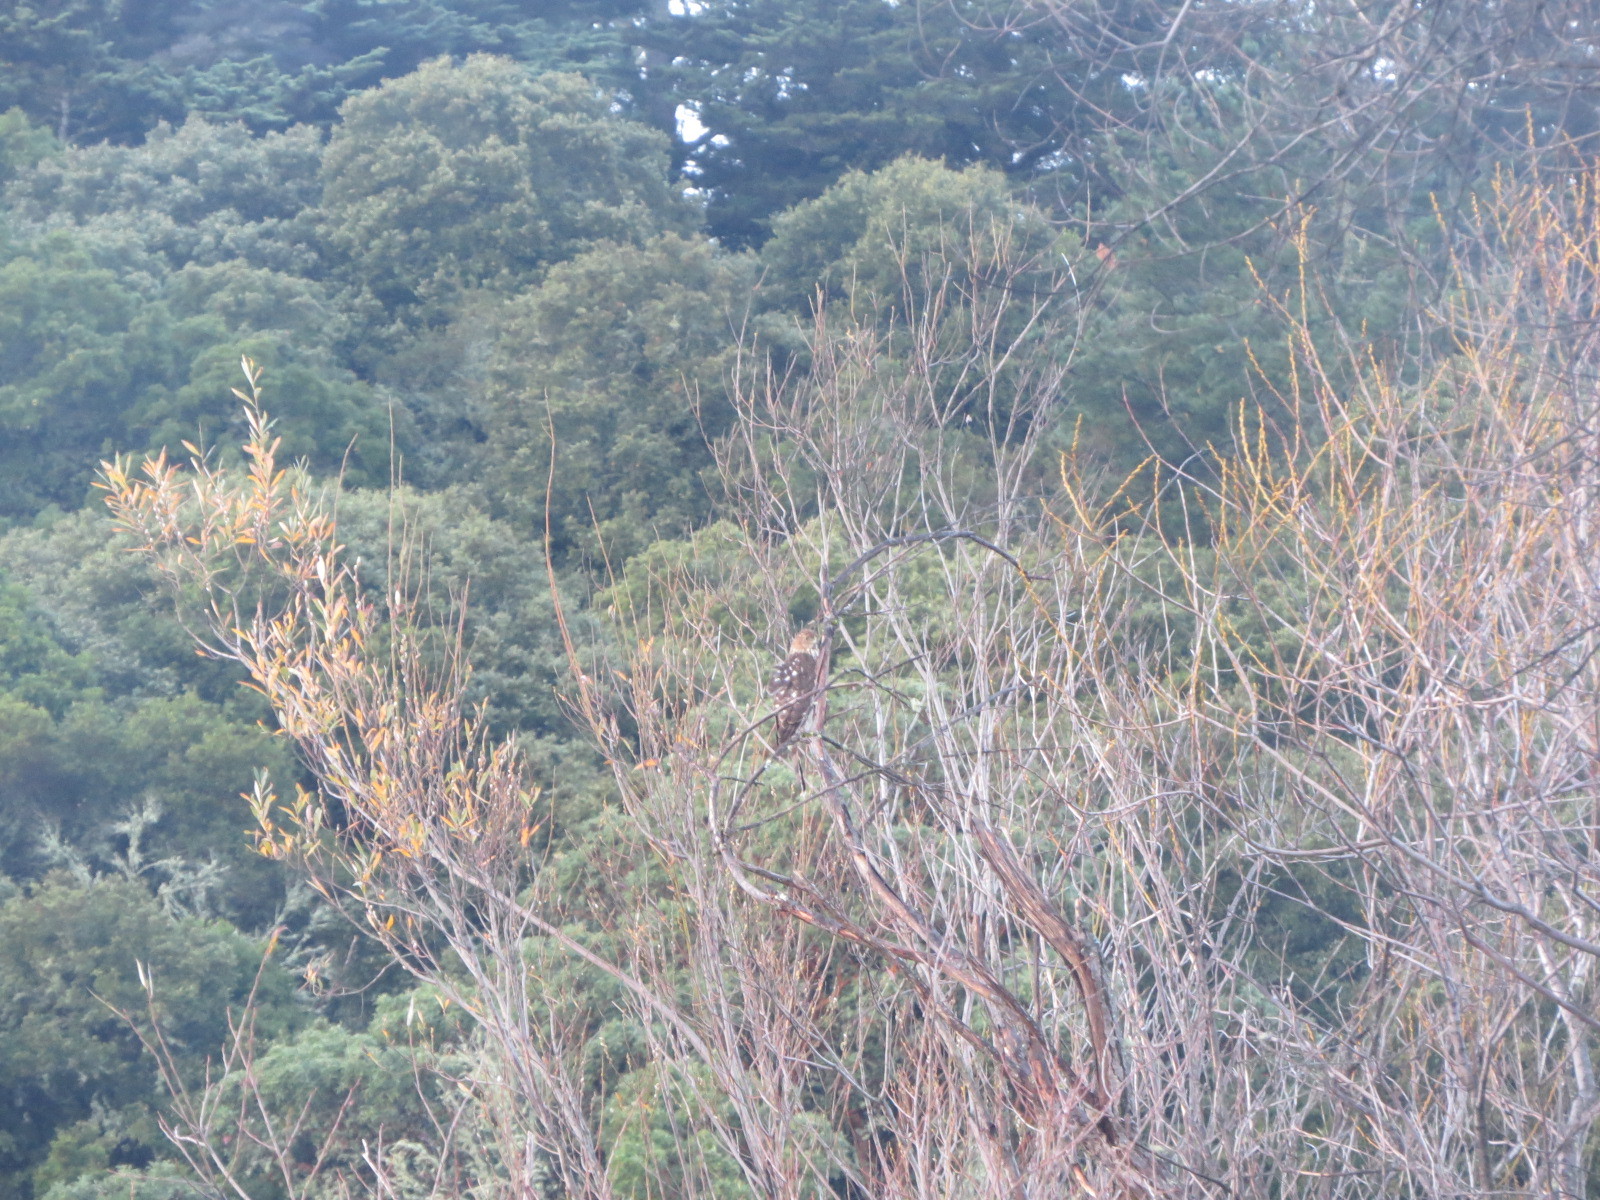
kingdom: Animalia
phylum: Chordata
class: Aves
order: Accipitriformes
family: Accipitridae
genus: Accipiter
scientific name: Accipiter cooperii
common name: Cooper's hawk
